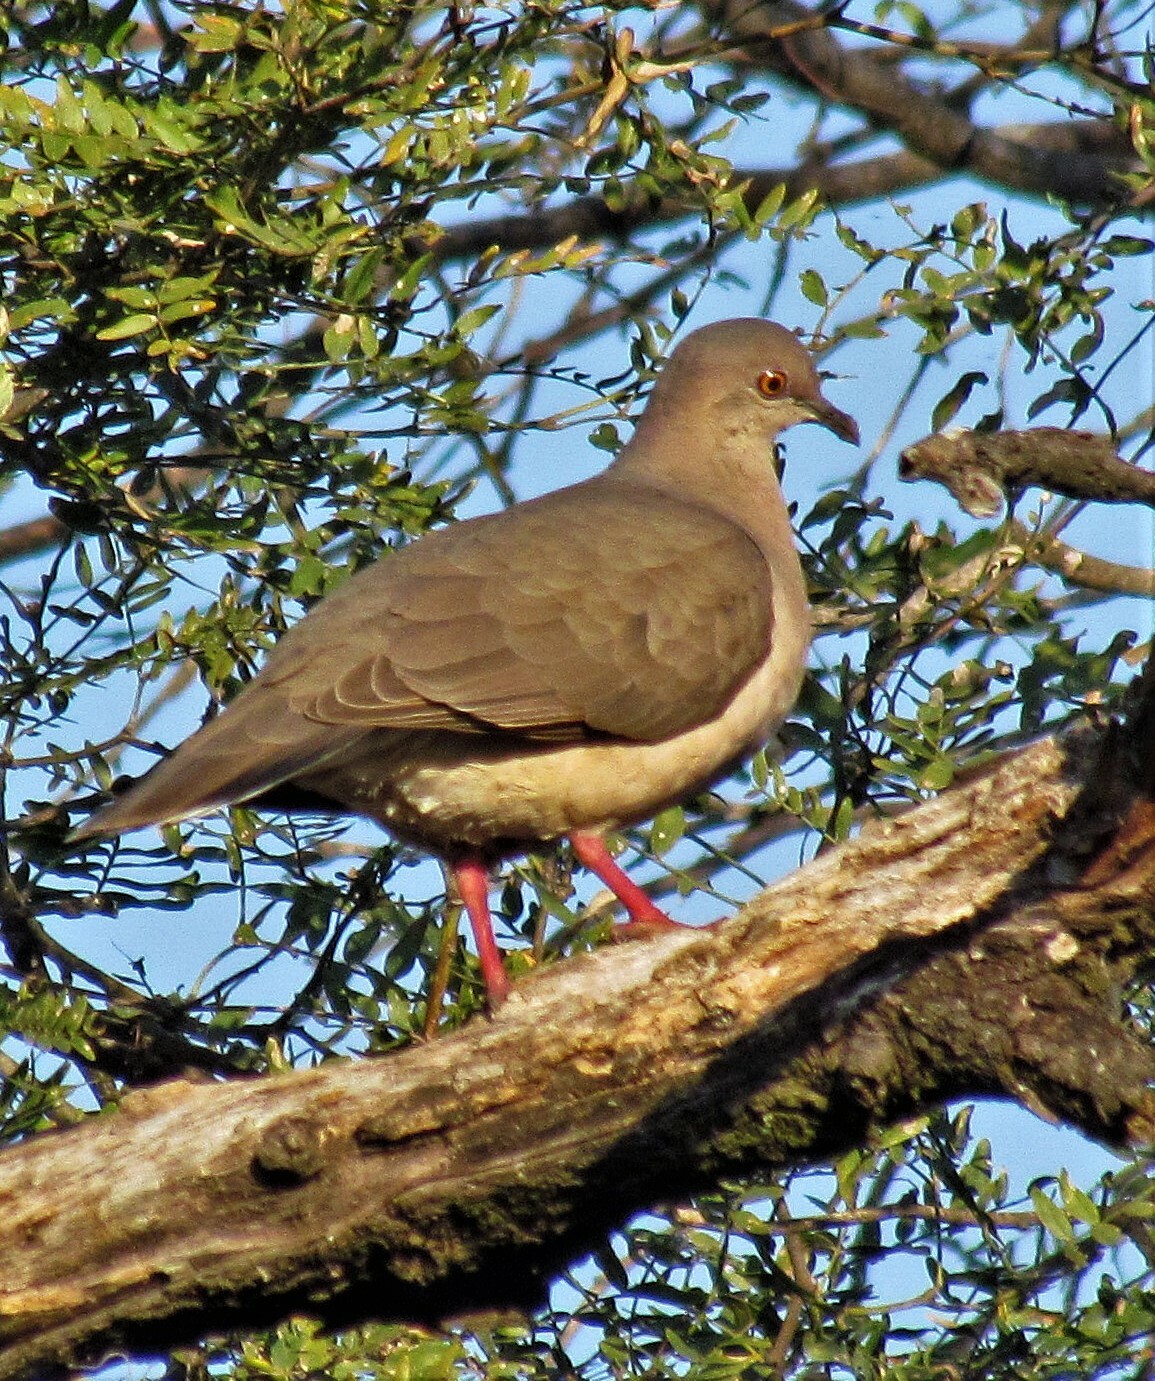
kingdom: Animalia
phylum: Chordata
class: Aves
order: Columbiformes
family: Columbidae
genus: Leptotila
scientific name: Leptotila verreauxi
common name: White-tipped dove
